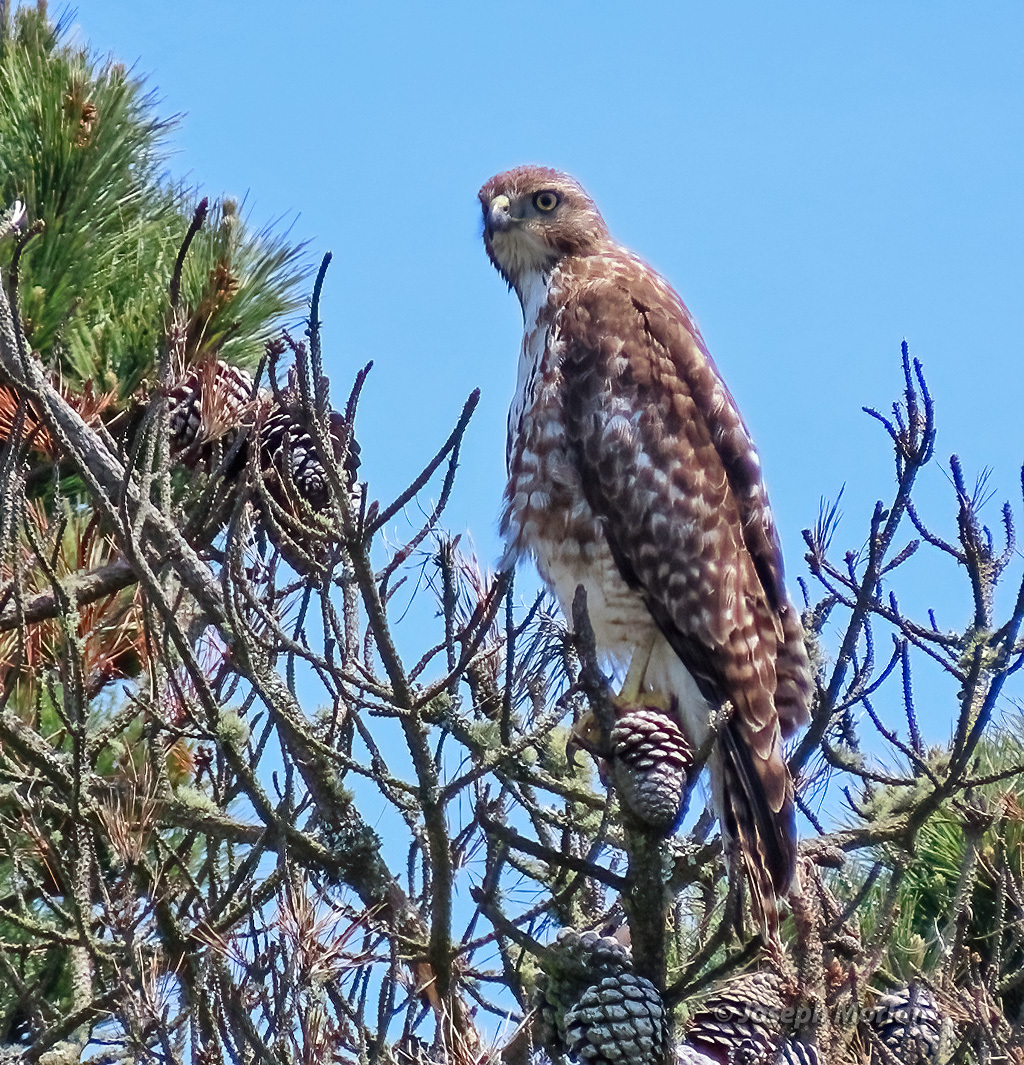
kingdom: Animalia
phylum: Chordata
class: Aves
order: Accipitriformes
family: Accipitridae
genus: Buteo
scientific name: Buteo jamaicensis
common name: Red-tailed hawk
